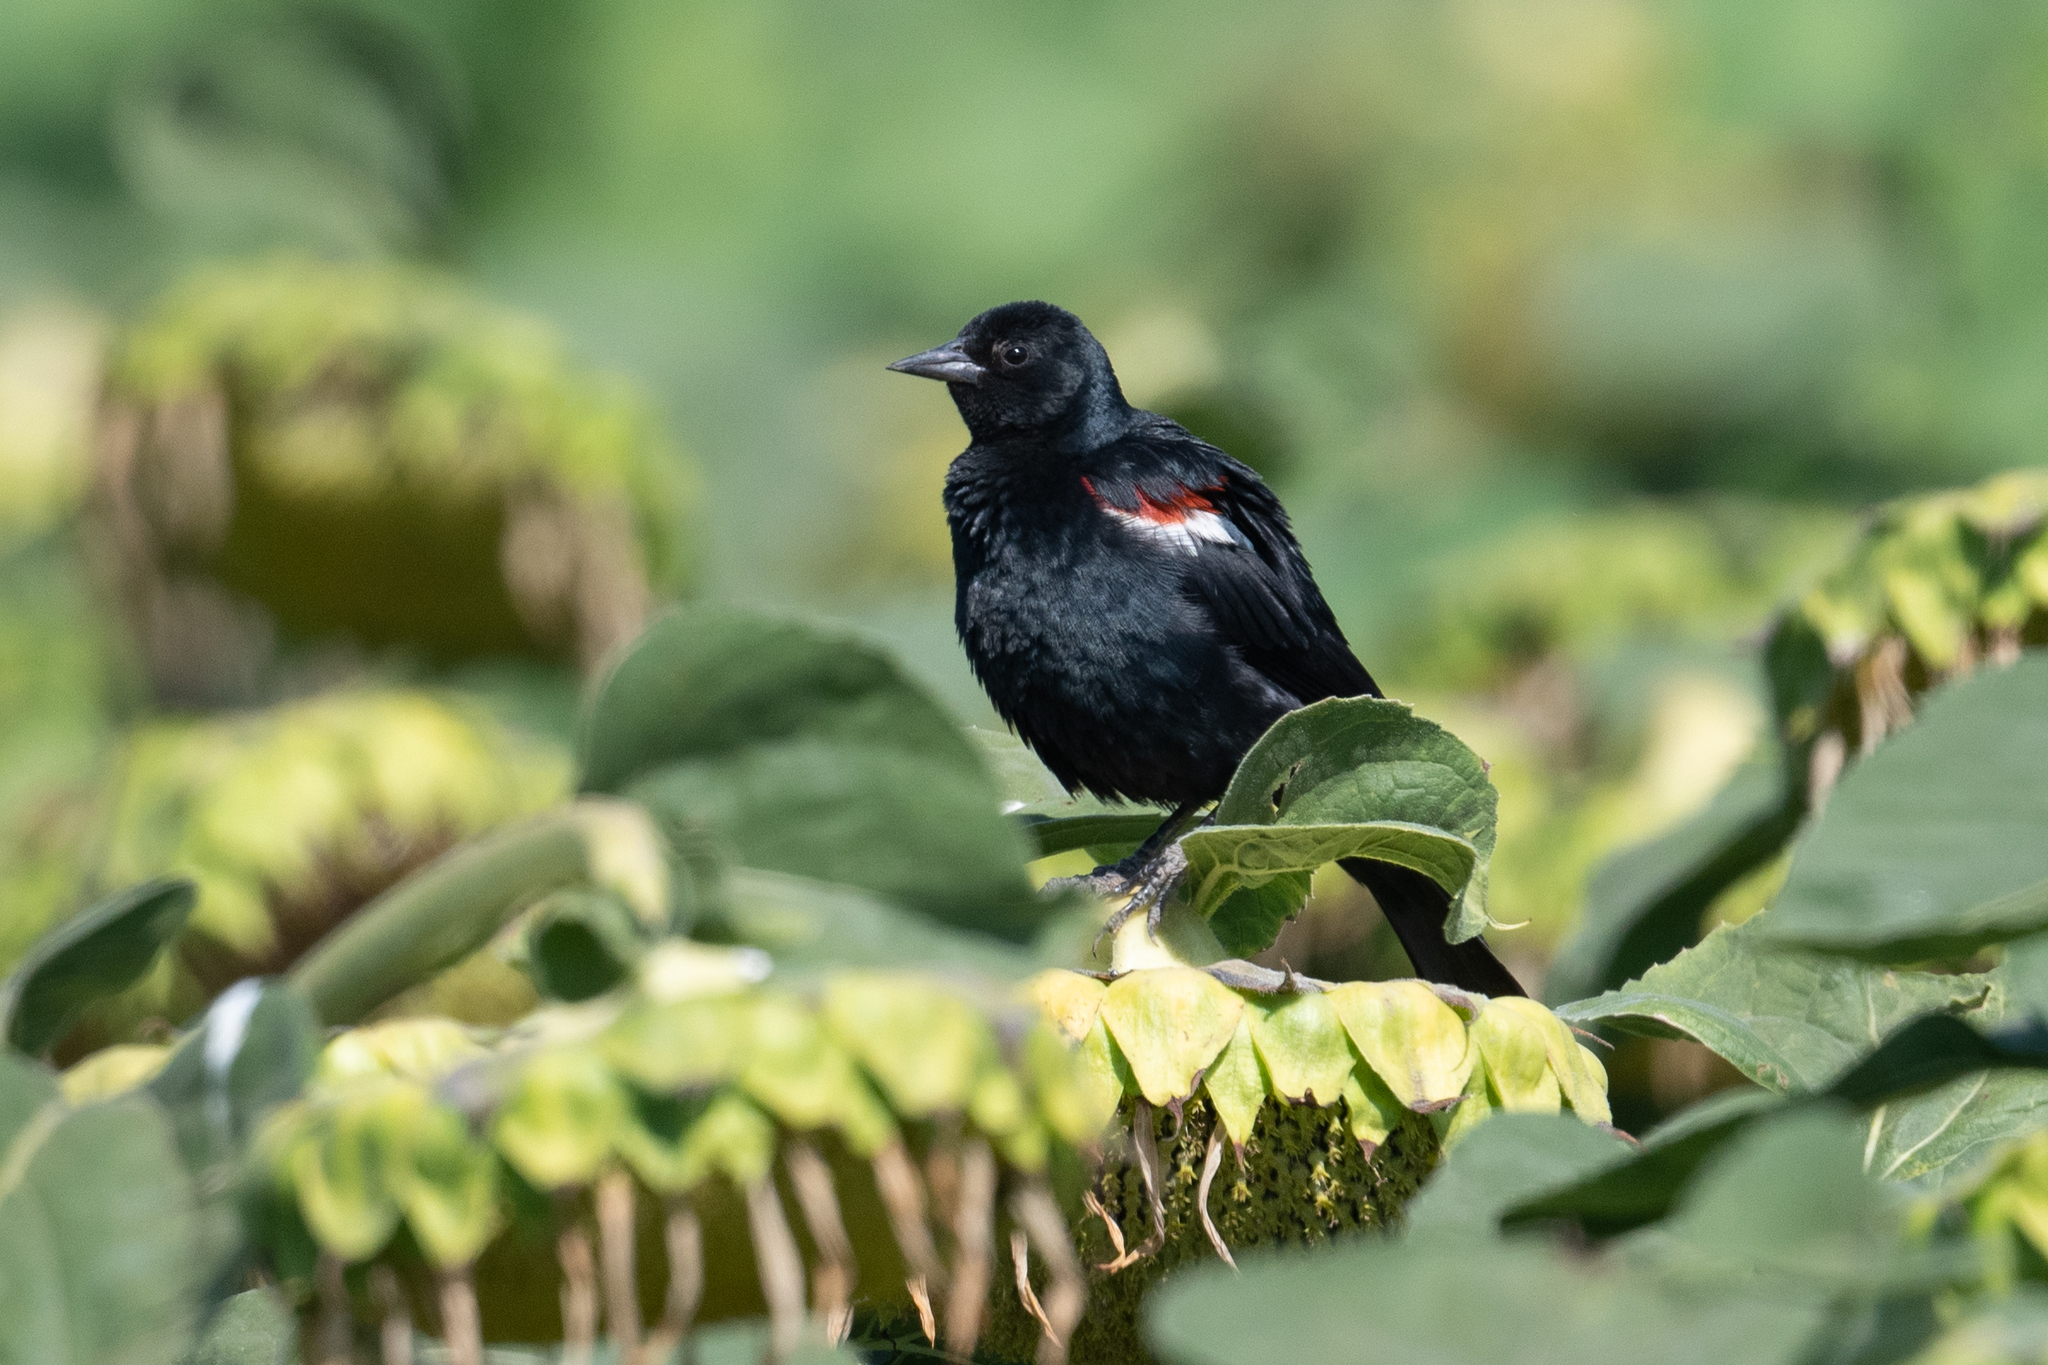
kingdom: Animalia
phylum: Chordata
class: Aves
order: Passeriformes
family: Icteridae
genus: Agelaius
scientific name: Agelaius tricolor
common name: Tricolored blackbird
